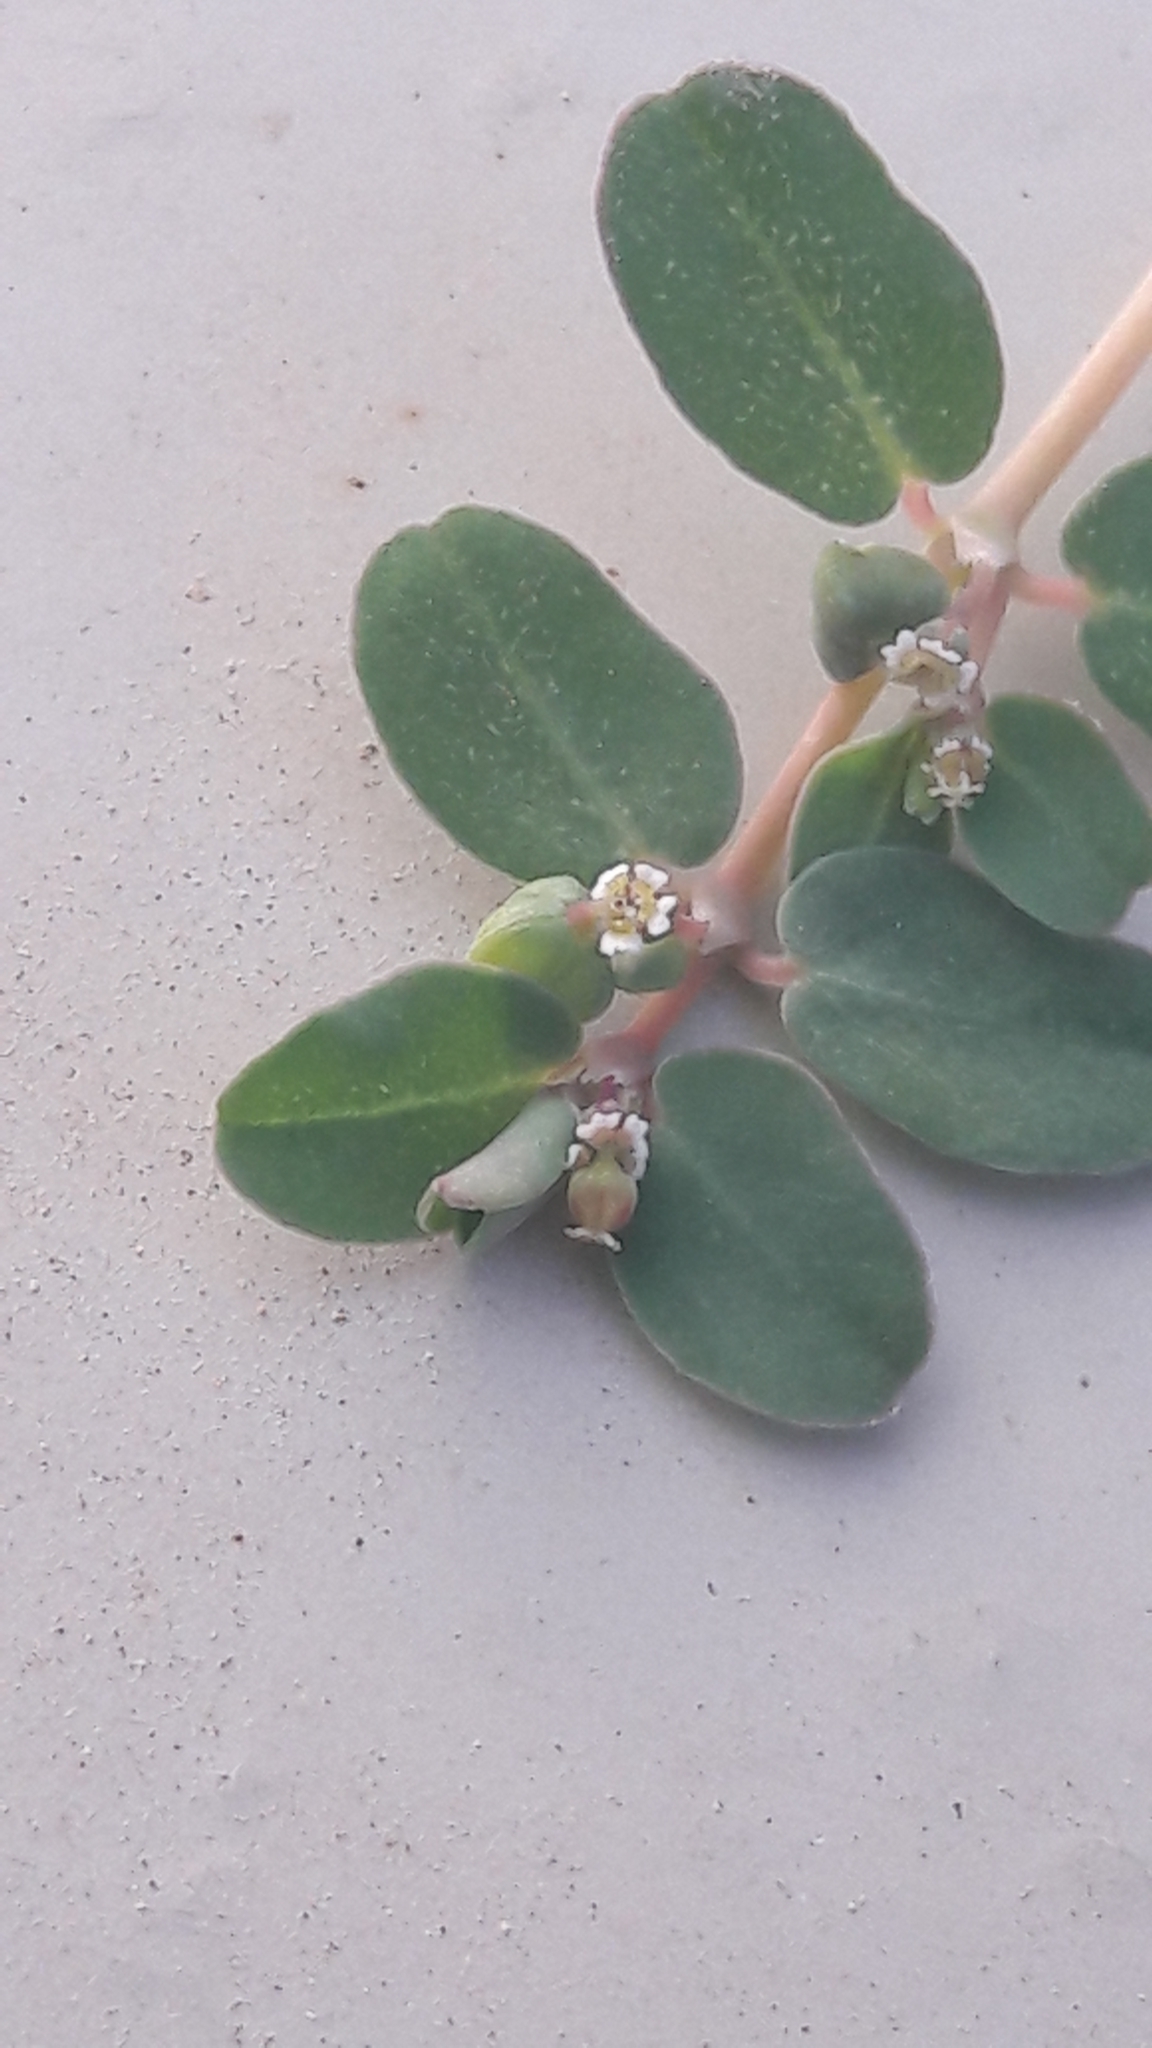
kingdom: Plantae
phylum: Tracheophyta
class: Magnoliopsida
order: Malpighiales
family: Euphorbiaceae
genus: Euphorbia
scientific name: Euphorbia serpens
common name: Matted sandmat
